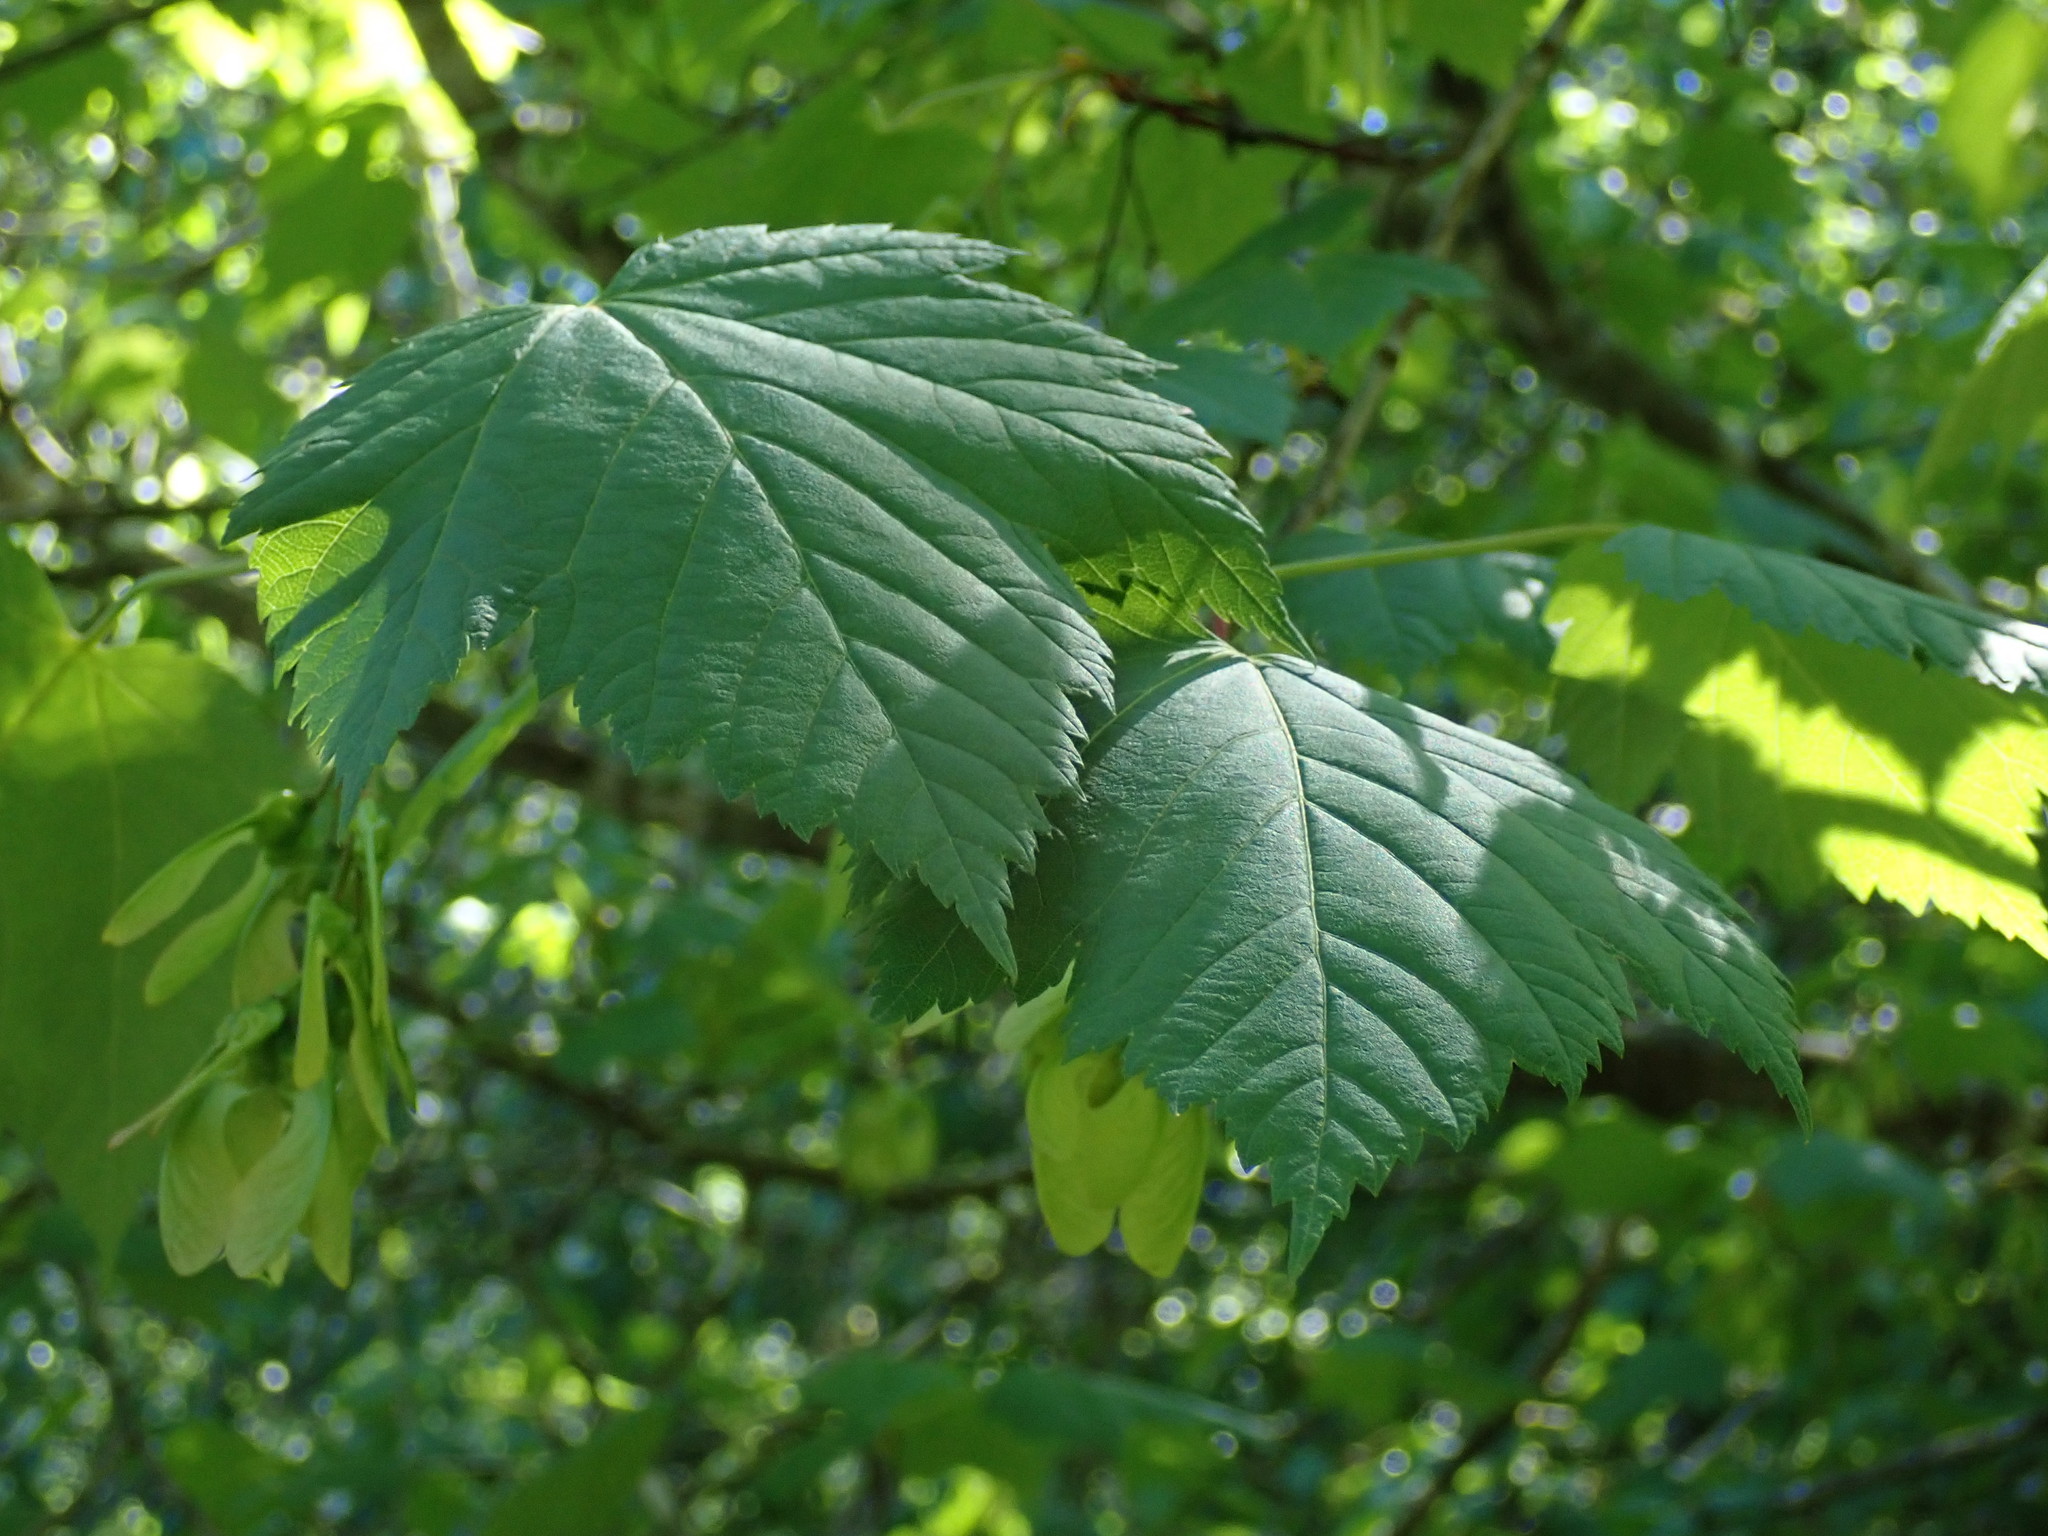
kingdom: Plantae
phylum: Tracheophyta
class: Magnoliopsida
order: Sapindales
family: Sapindaceae
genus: Acer
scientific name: Acer glabrum
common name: Rocky mountain maple
